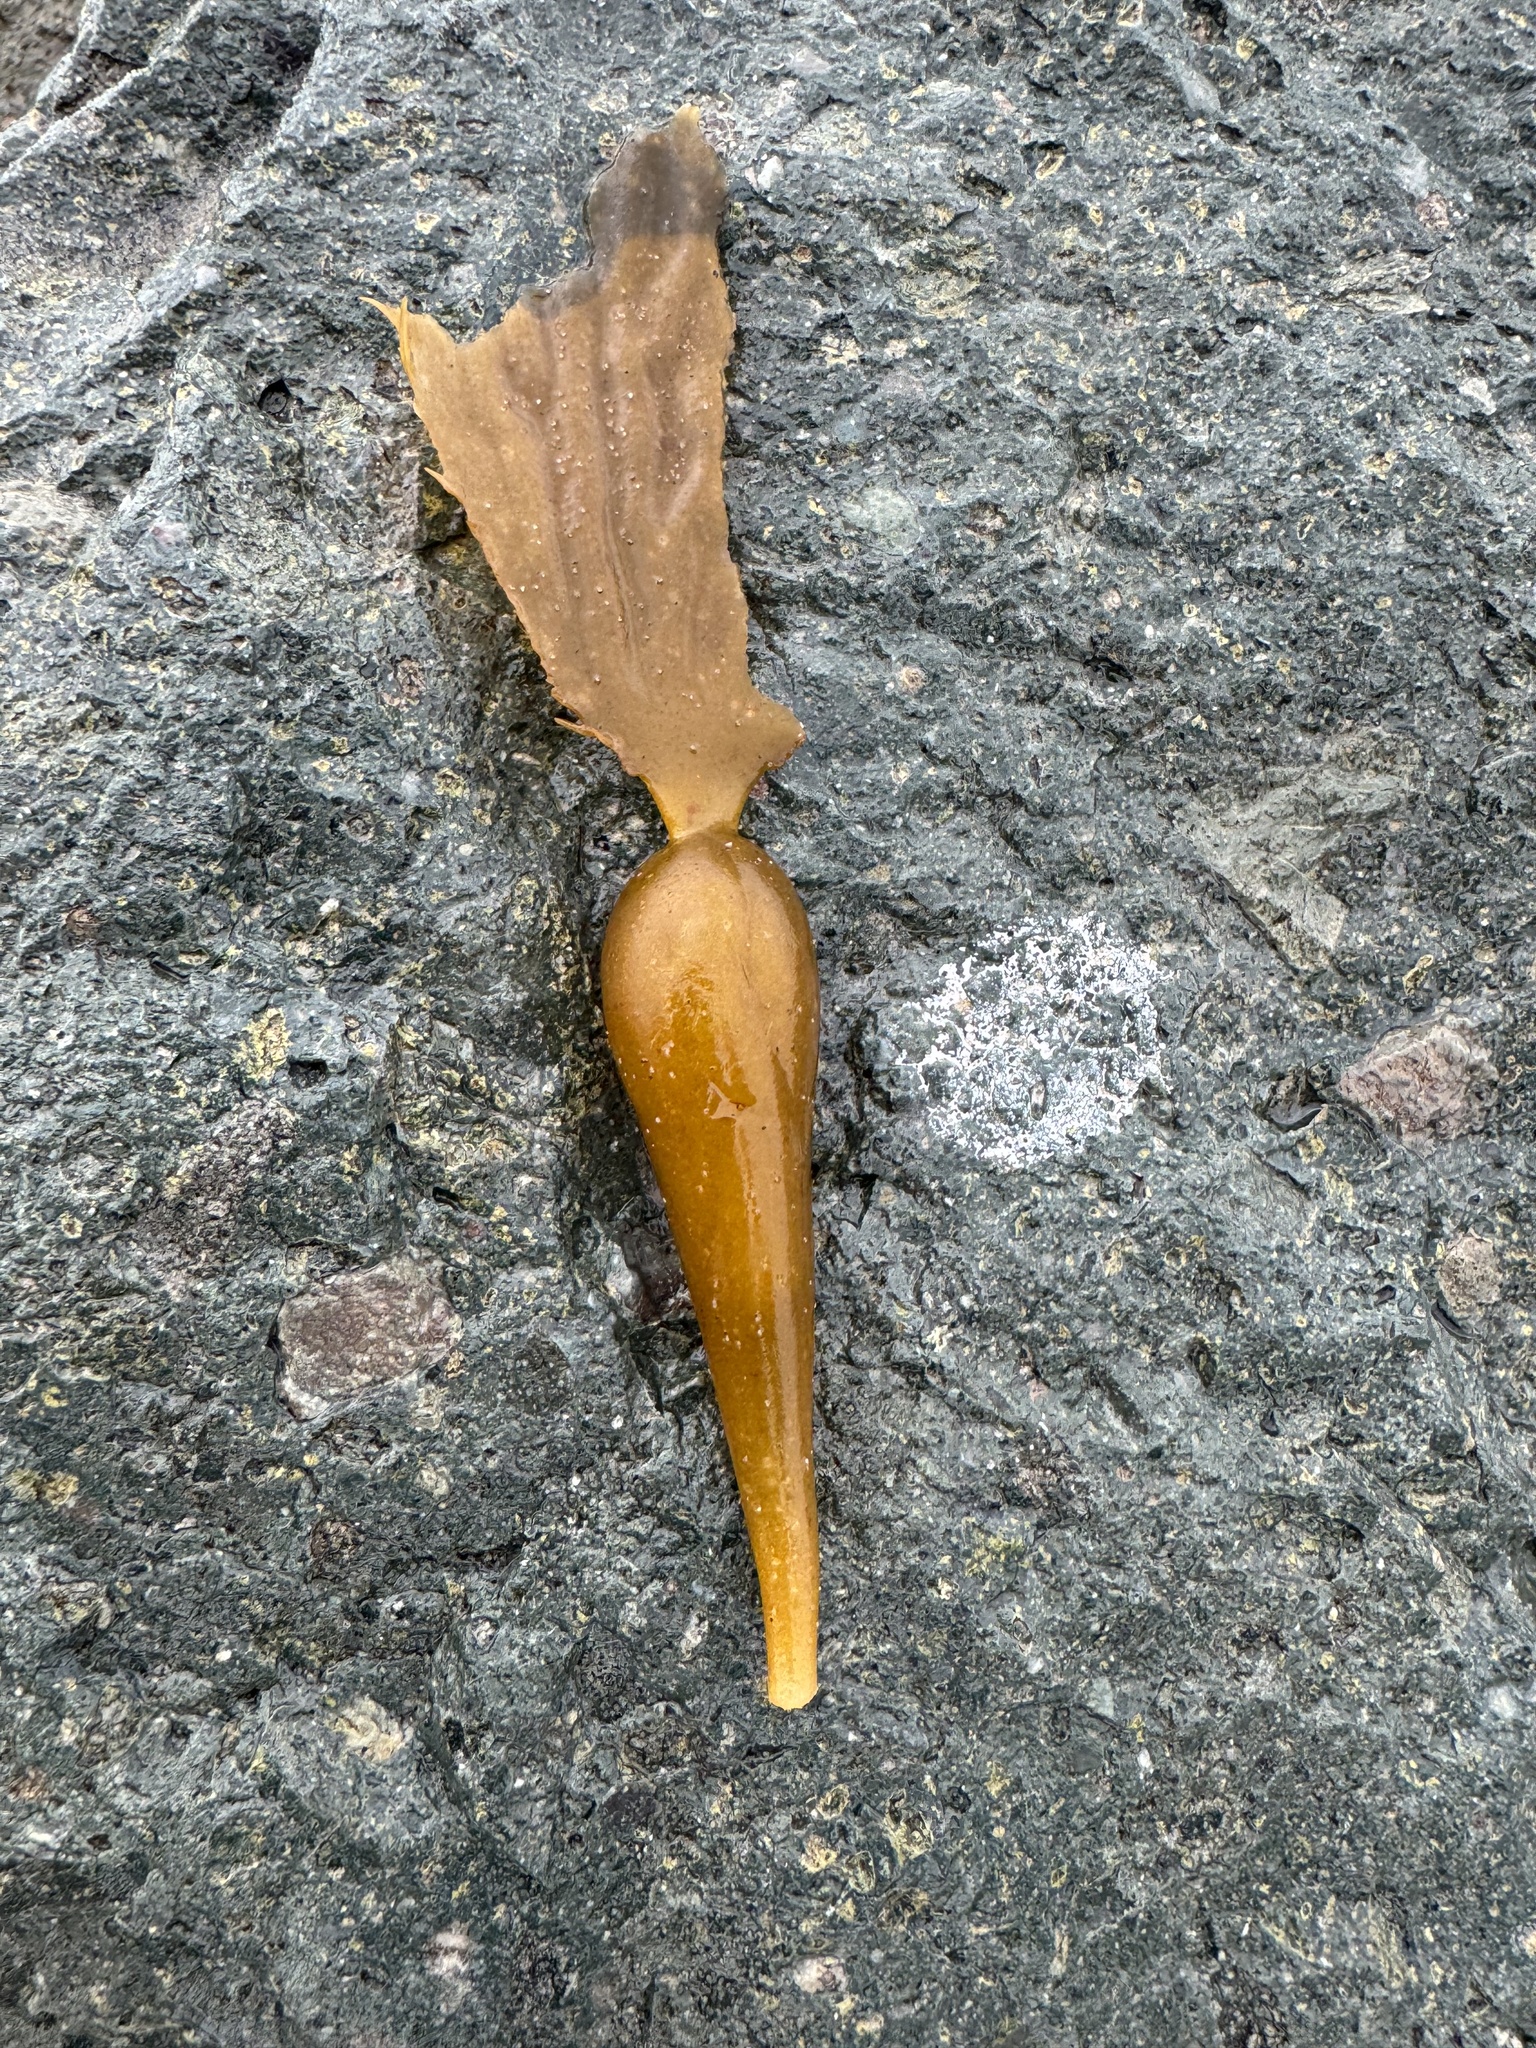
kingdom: Chromista
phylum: Ochrophyta
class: Phaeophyceae
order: Laminariales
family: Laminariaceae
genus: Macrocystis
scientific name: Macrocystis pyrifera
